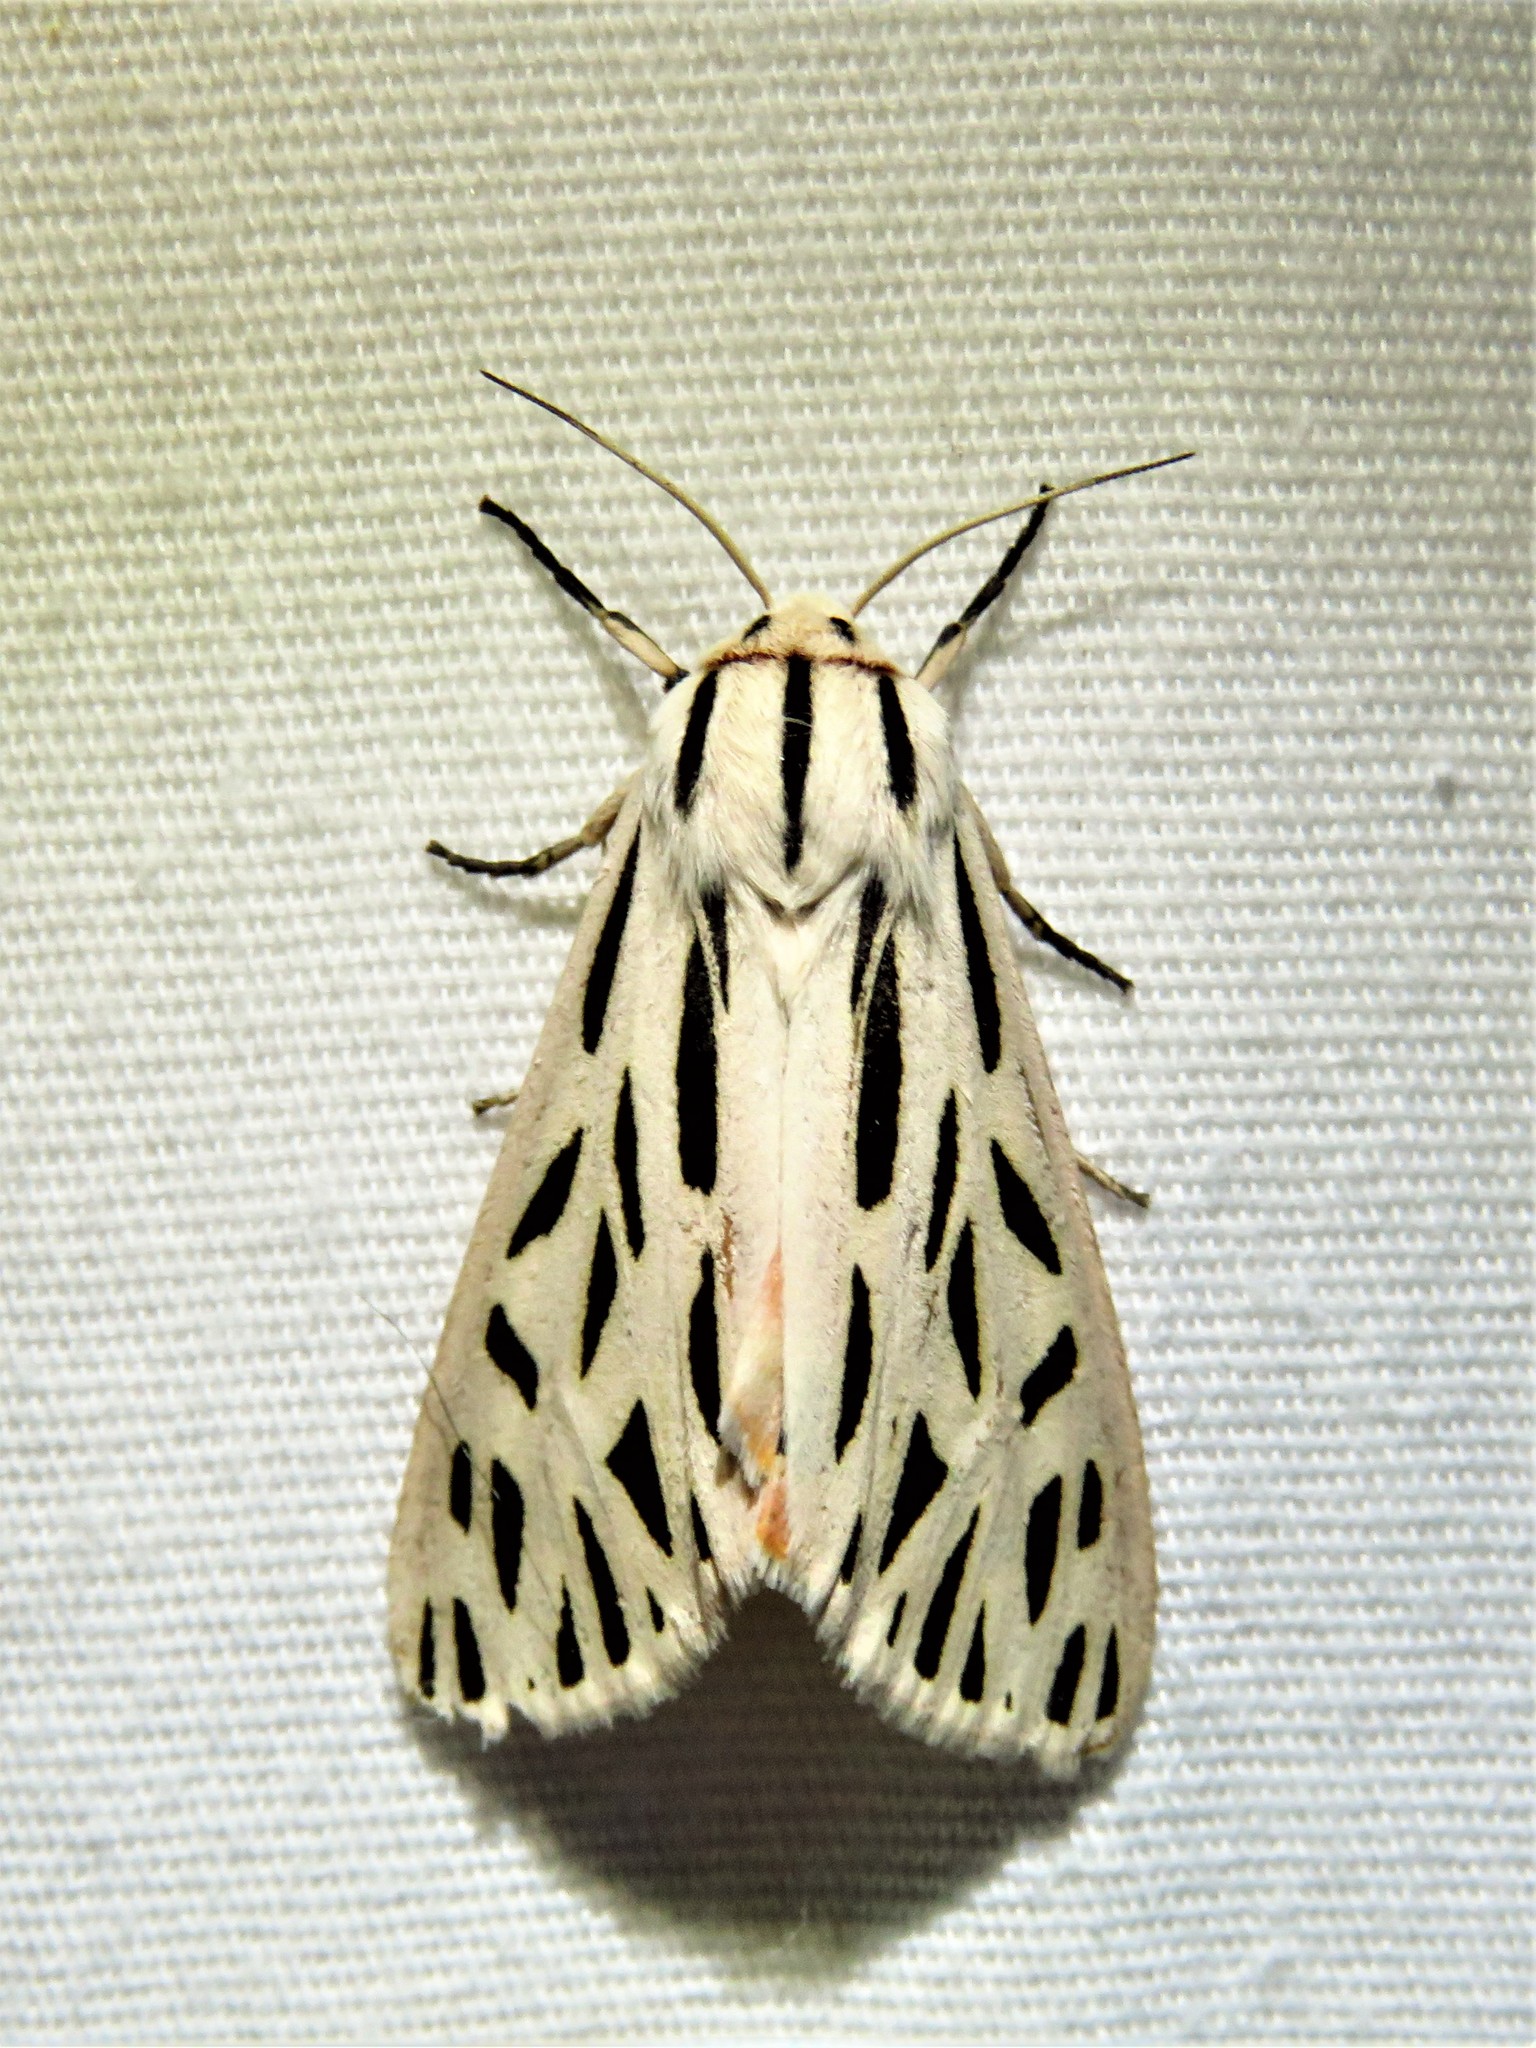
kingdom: Animalia
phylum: Arthropoda
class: Insecta
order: Lepidoptera
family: Erebidae
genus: Apantesis
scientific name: Apantesis arge
